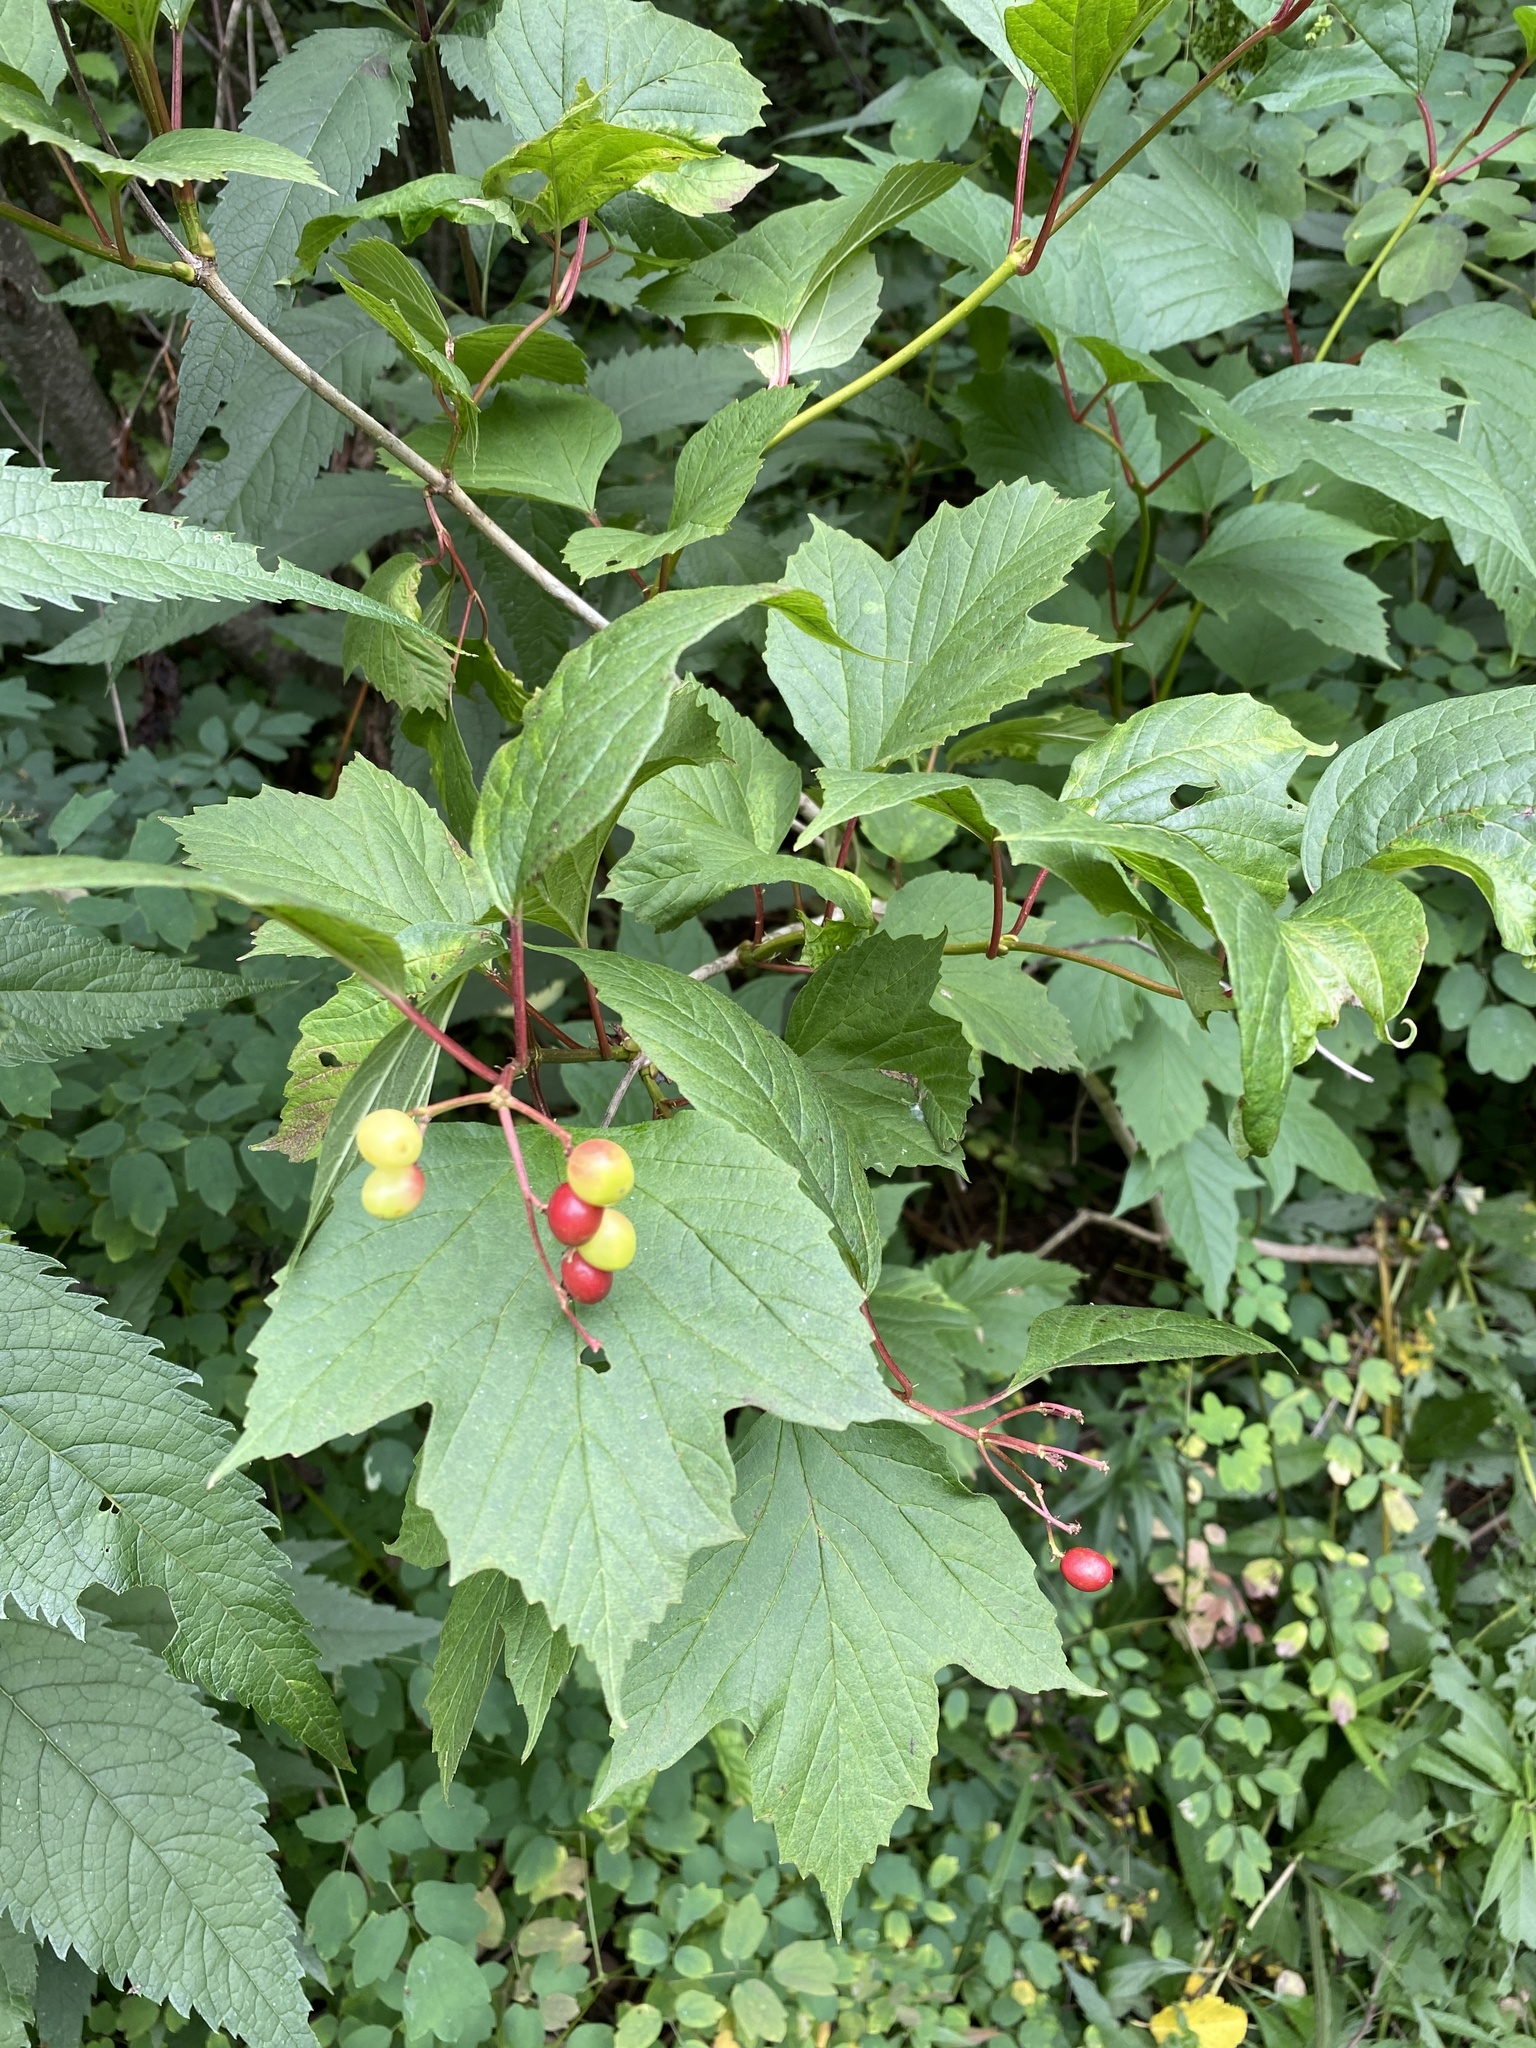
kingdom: Plantae
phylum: Tracheophyta
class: Magnoliopsida
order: Dipsacales
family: Viburnaceae
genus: Viburnum
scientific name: Viburnum trilobum
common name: American cranberrybush
